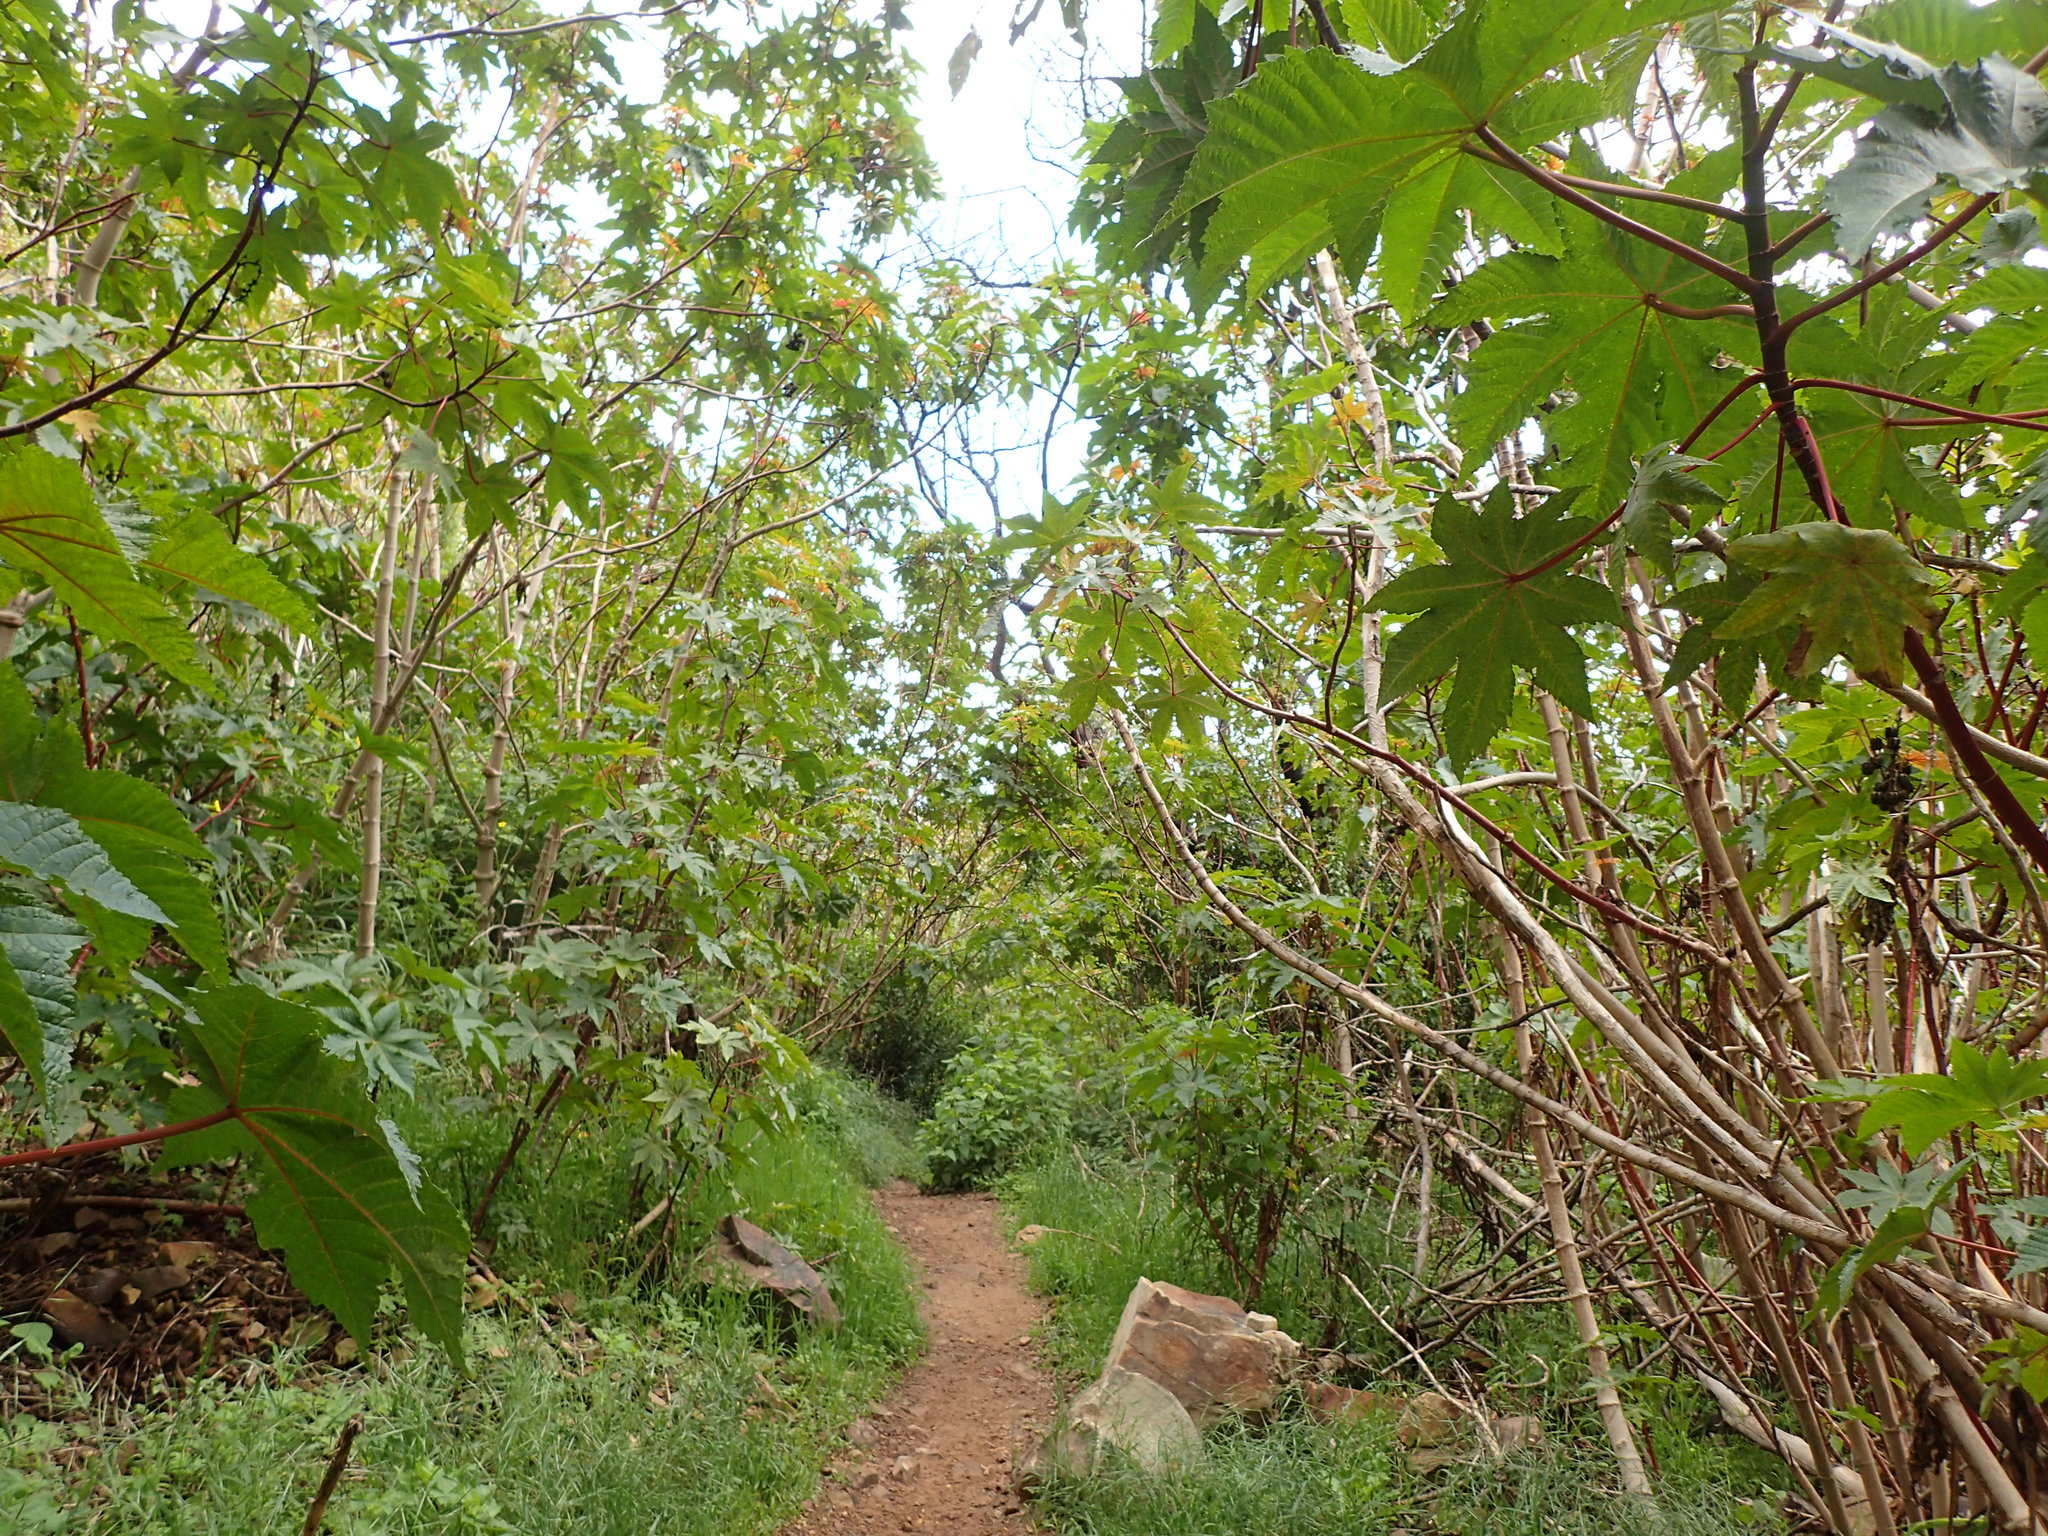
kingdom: Plantae
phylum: Tracheophyta
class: Magnoliopsida
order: Malpighiales
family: Euphorbiaceae
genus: Ricinus
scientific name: Ricinus communis
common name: Castor-oil-plant
